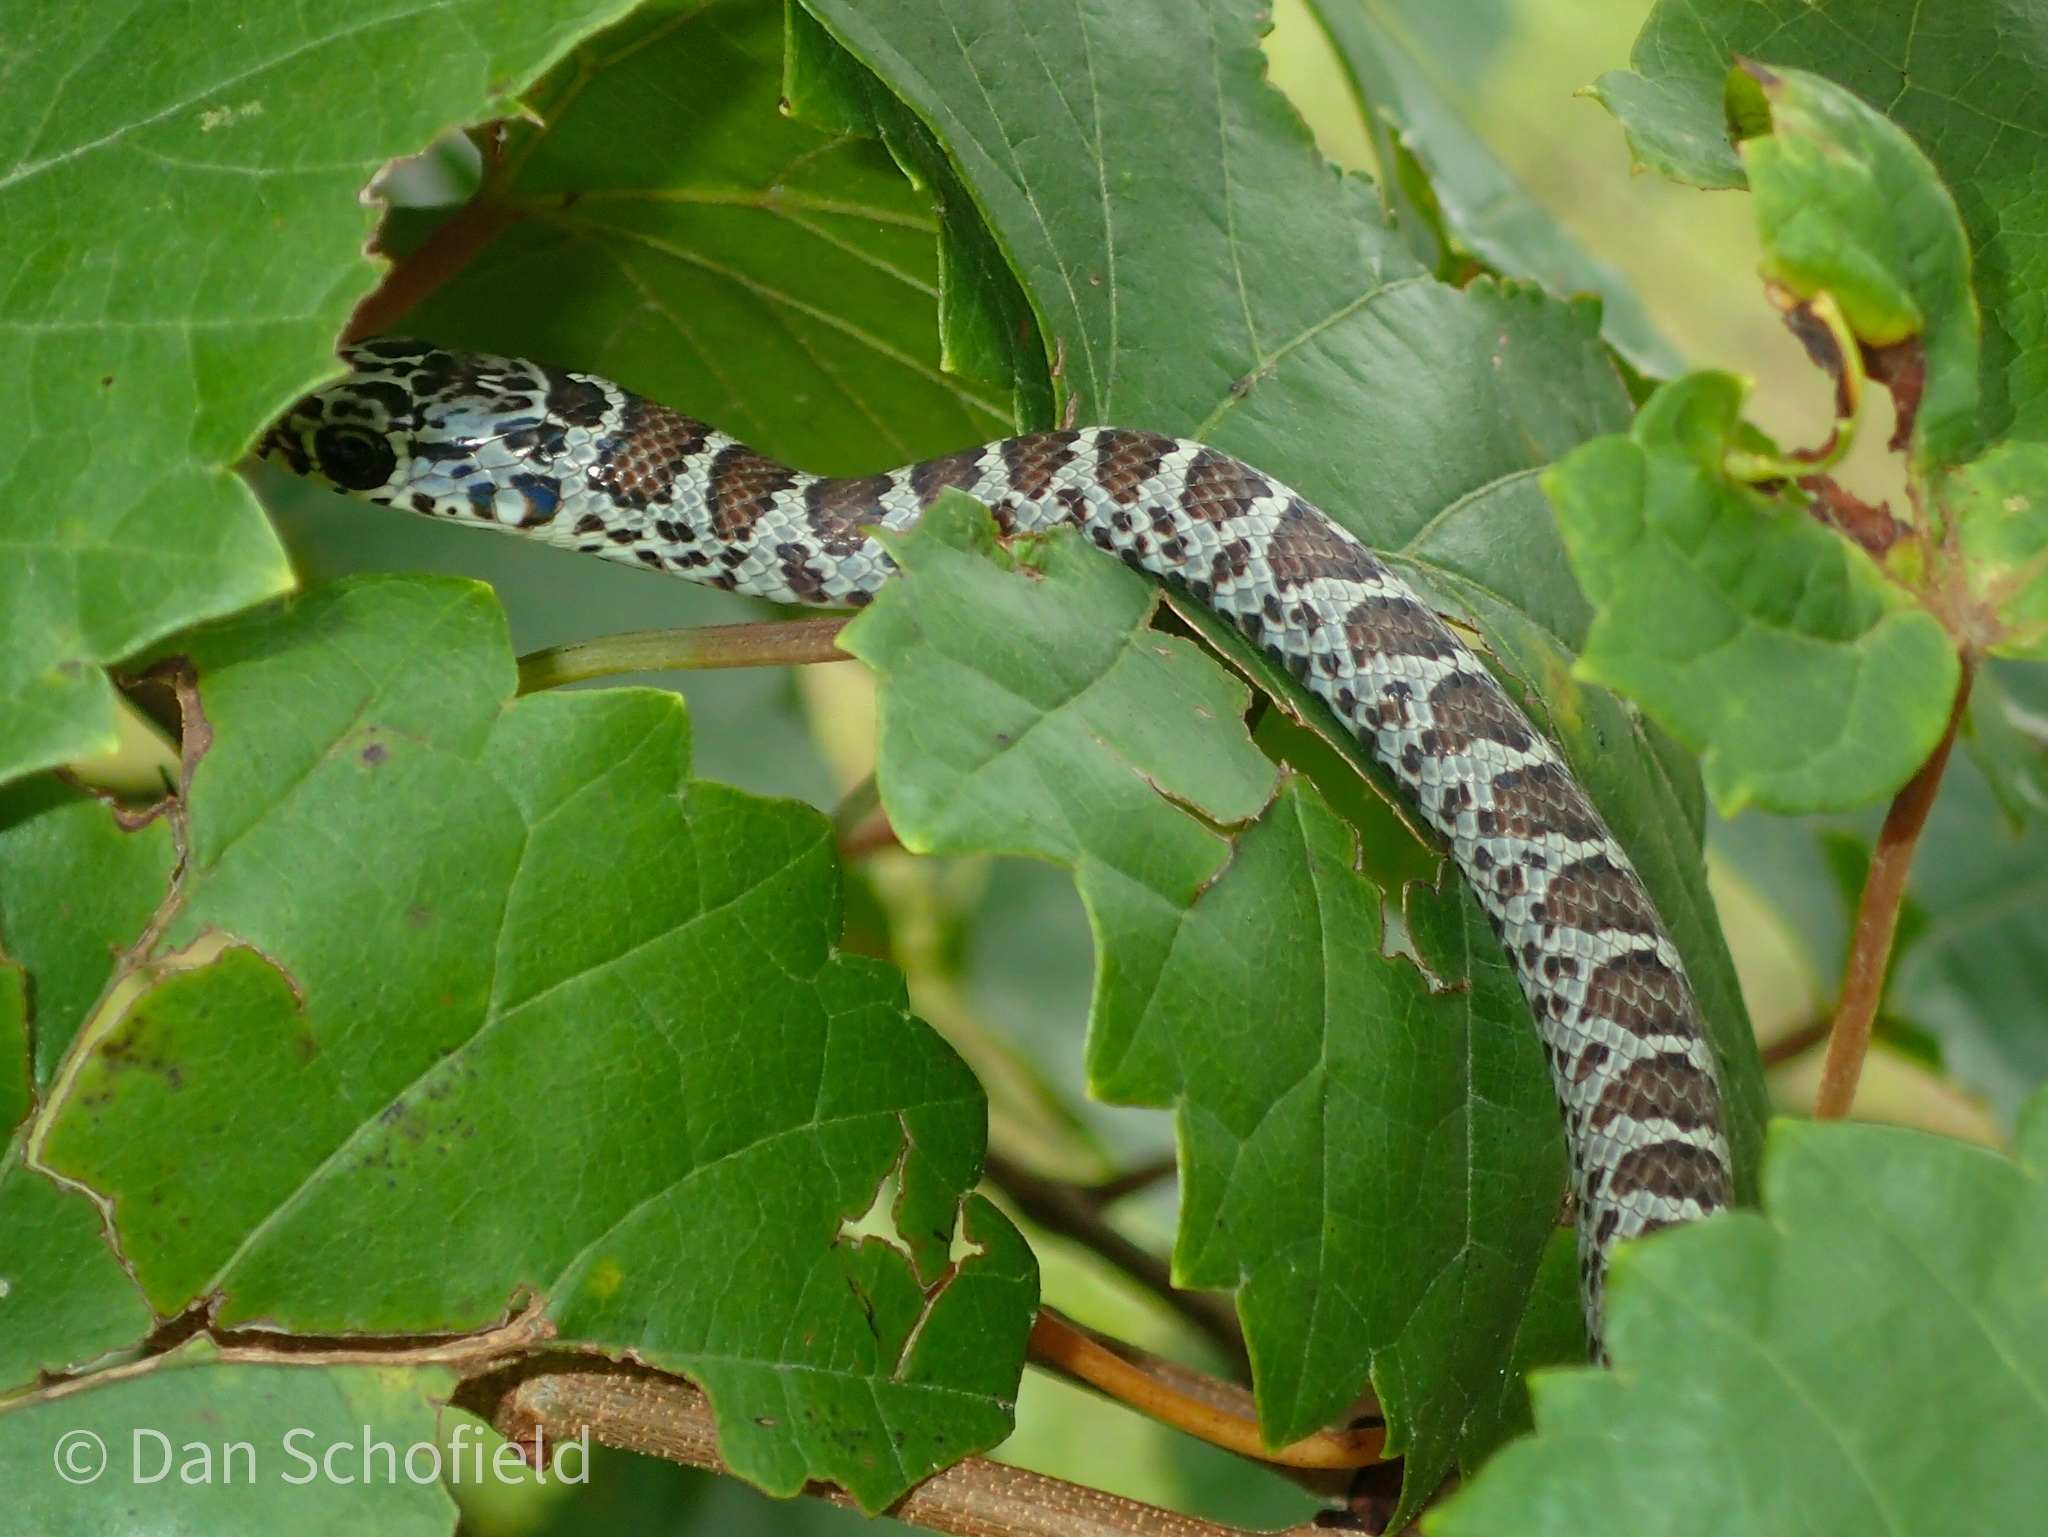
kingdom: Animalia
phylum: Chordata
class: Squamata
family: Colubridae
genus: Coluber
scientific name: Coluber constrictor
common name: Eastern racer
